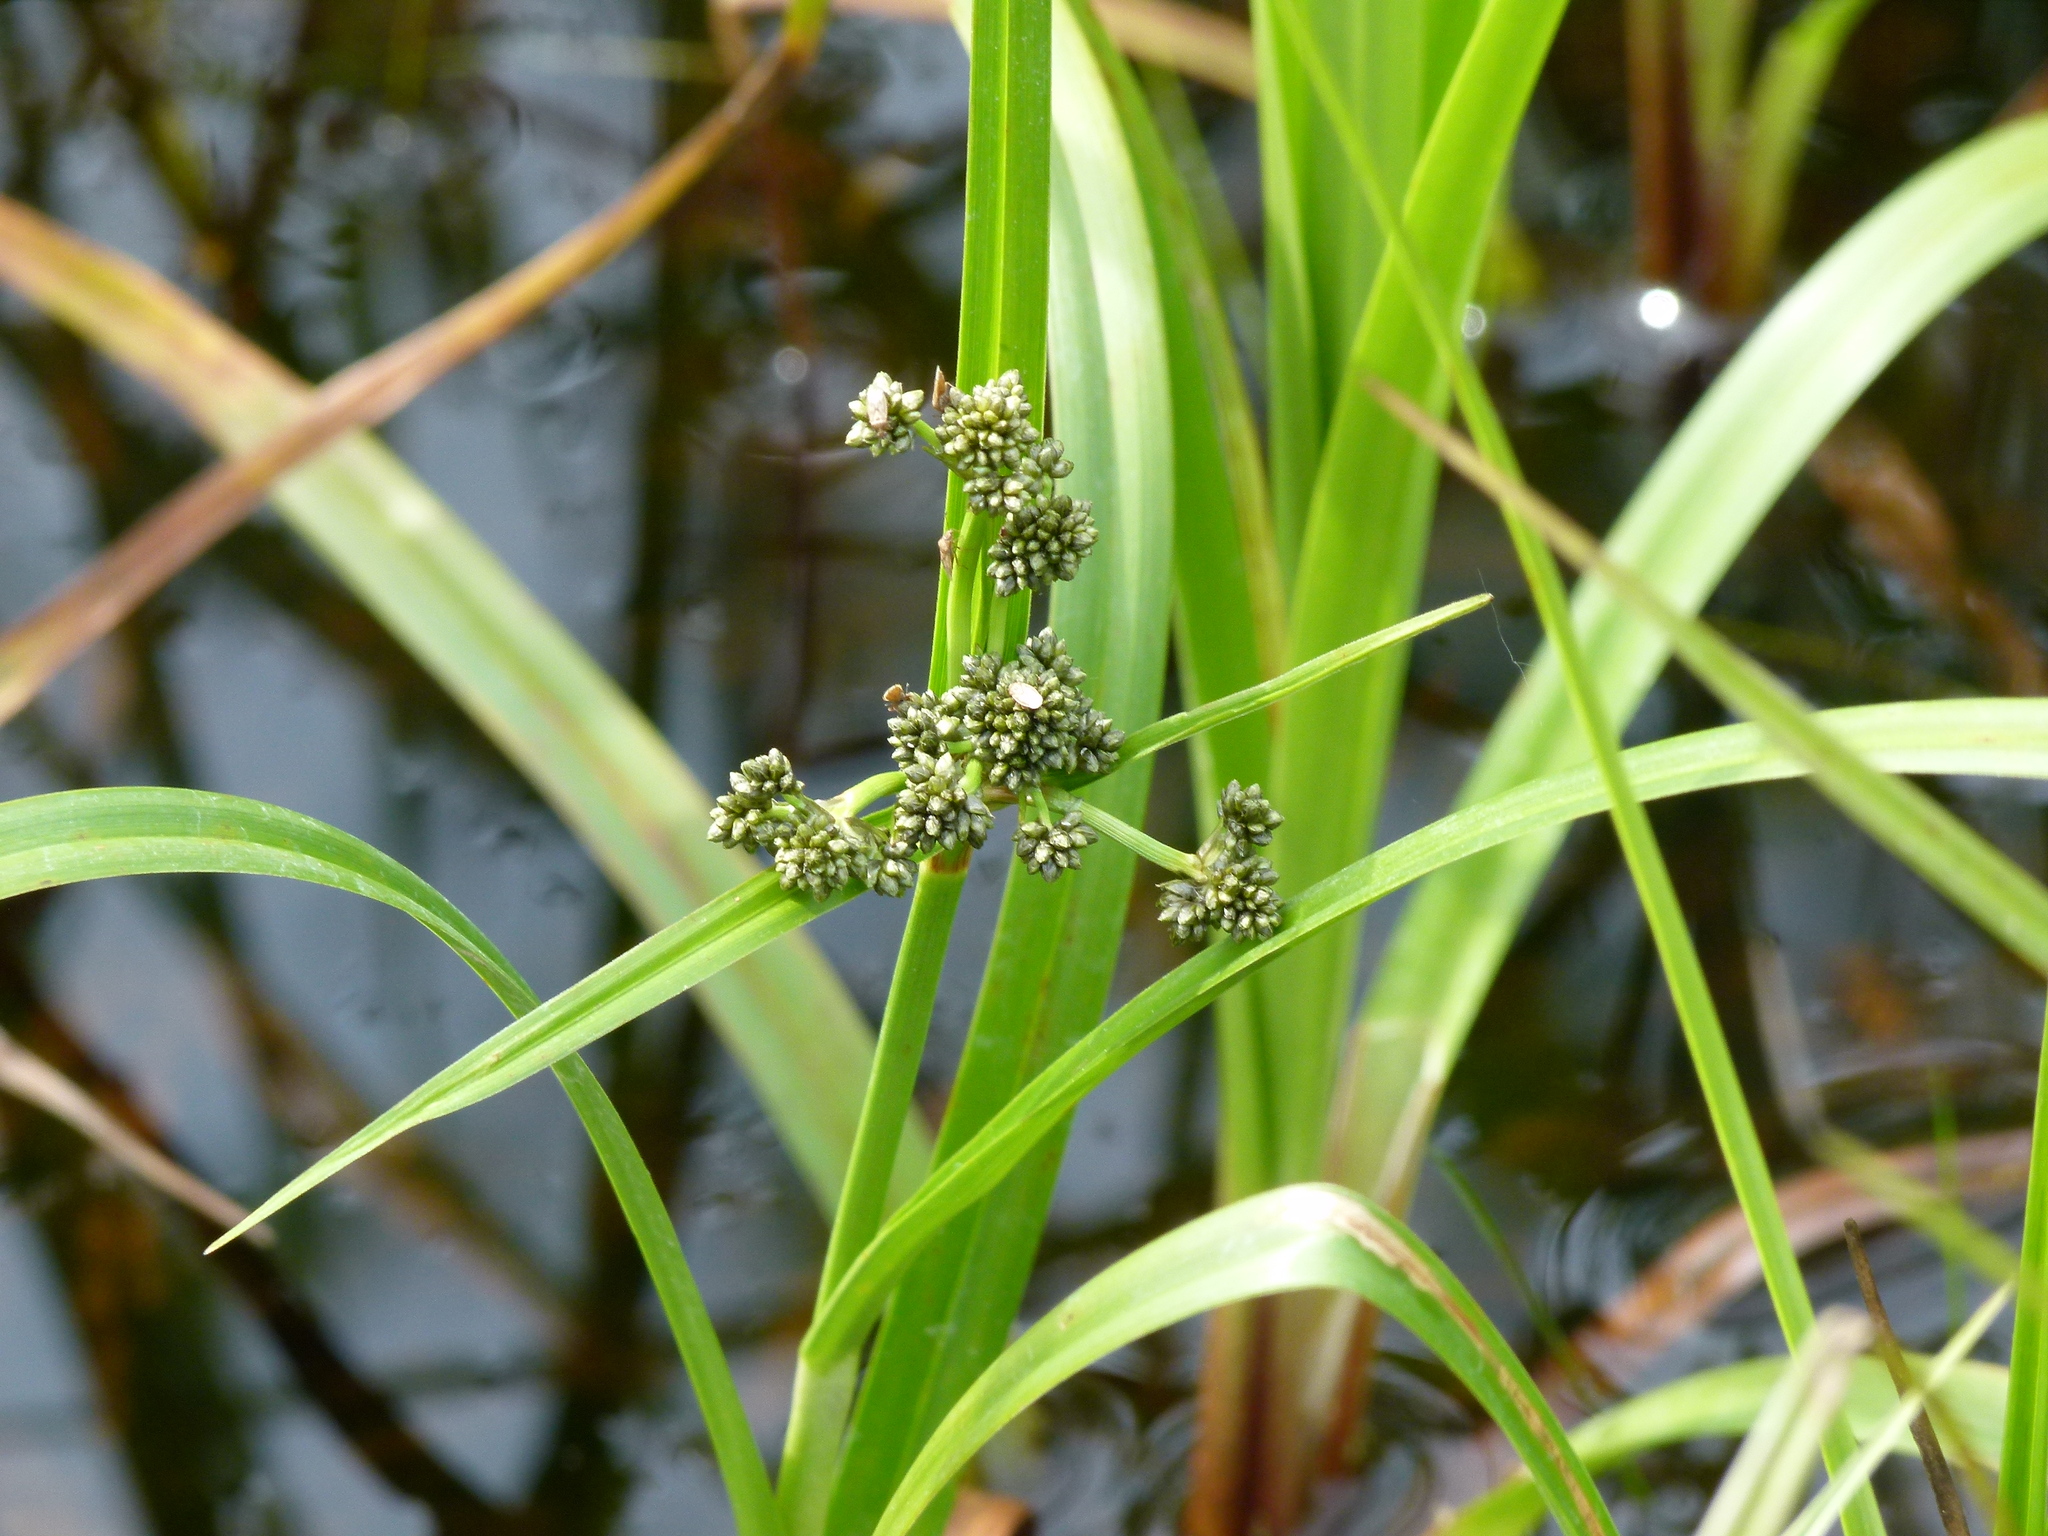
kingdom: Plantae
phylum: Tracheophyta
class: Liliopsida
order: Poales
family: Cyperaceae
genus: Scirpus
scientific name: Scirpus microcarpus
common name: Panicled bulrush
